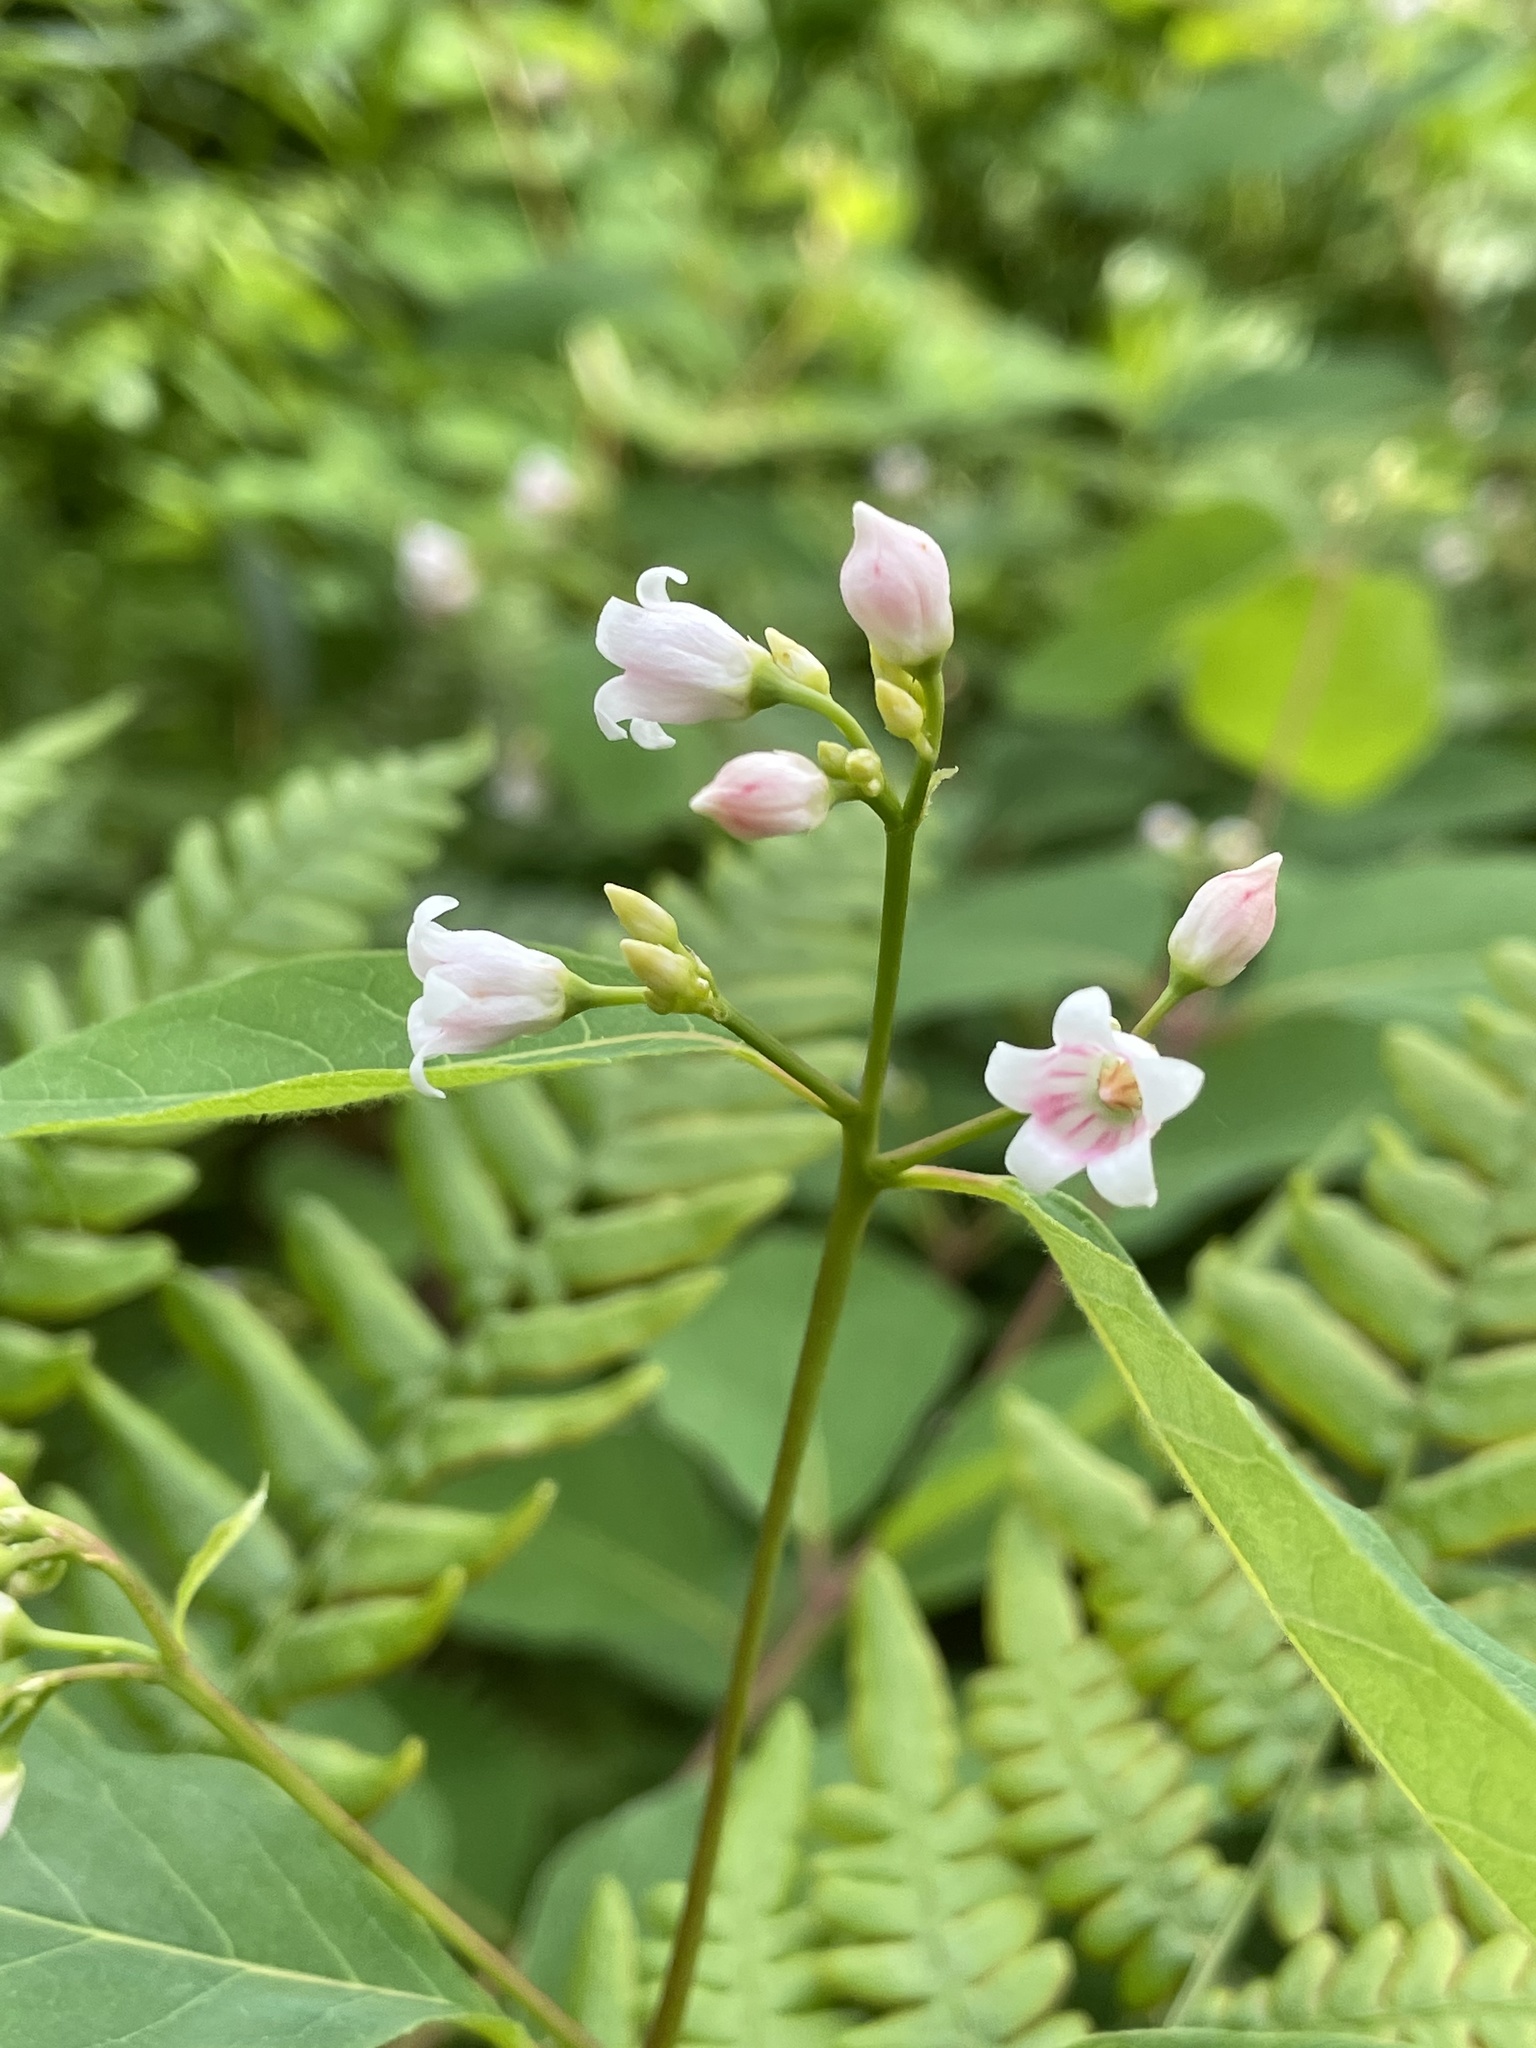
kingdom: Plantae
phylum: Tracheophyta
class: Magnoliopsida
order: Gentianales
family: Apocynaceae
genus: Apocynum
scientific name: Apocynum androsaemifolium
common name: Spreading dogbane
